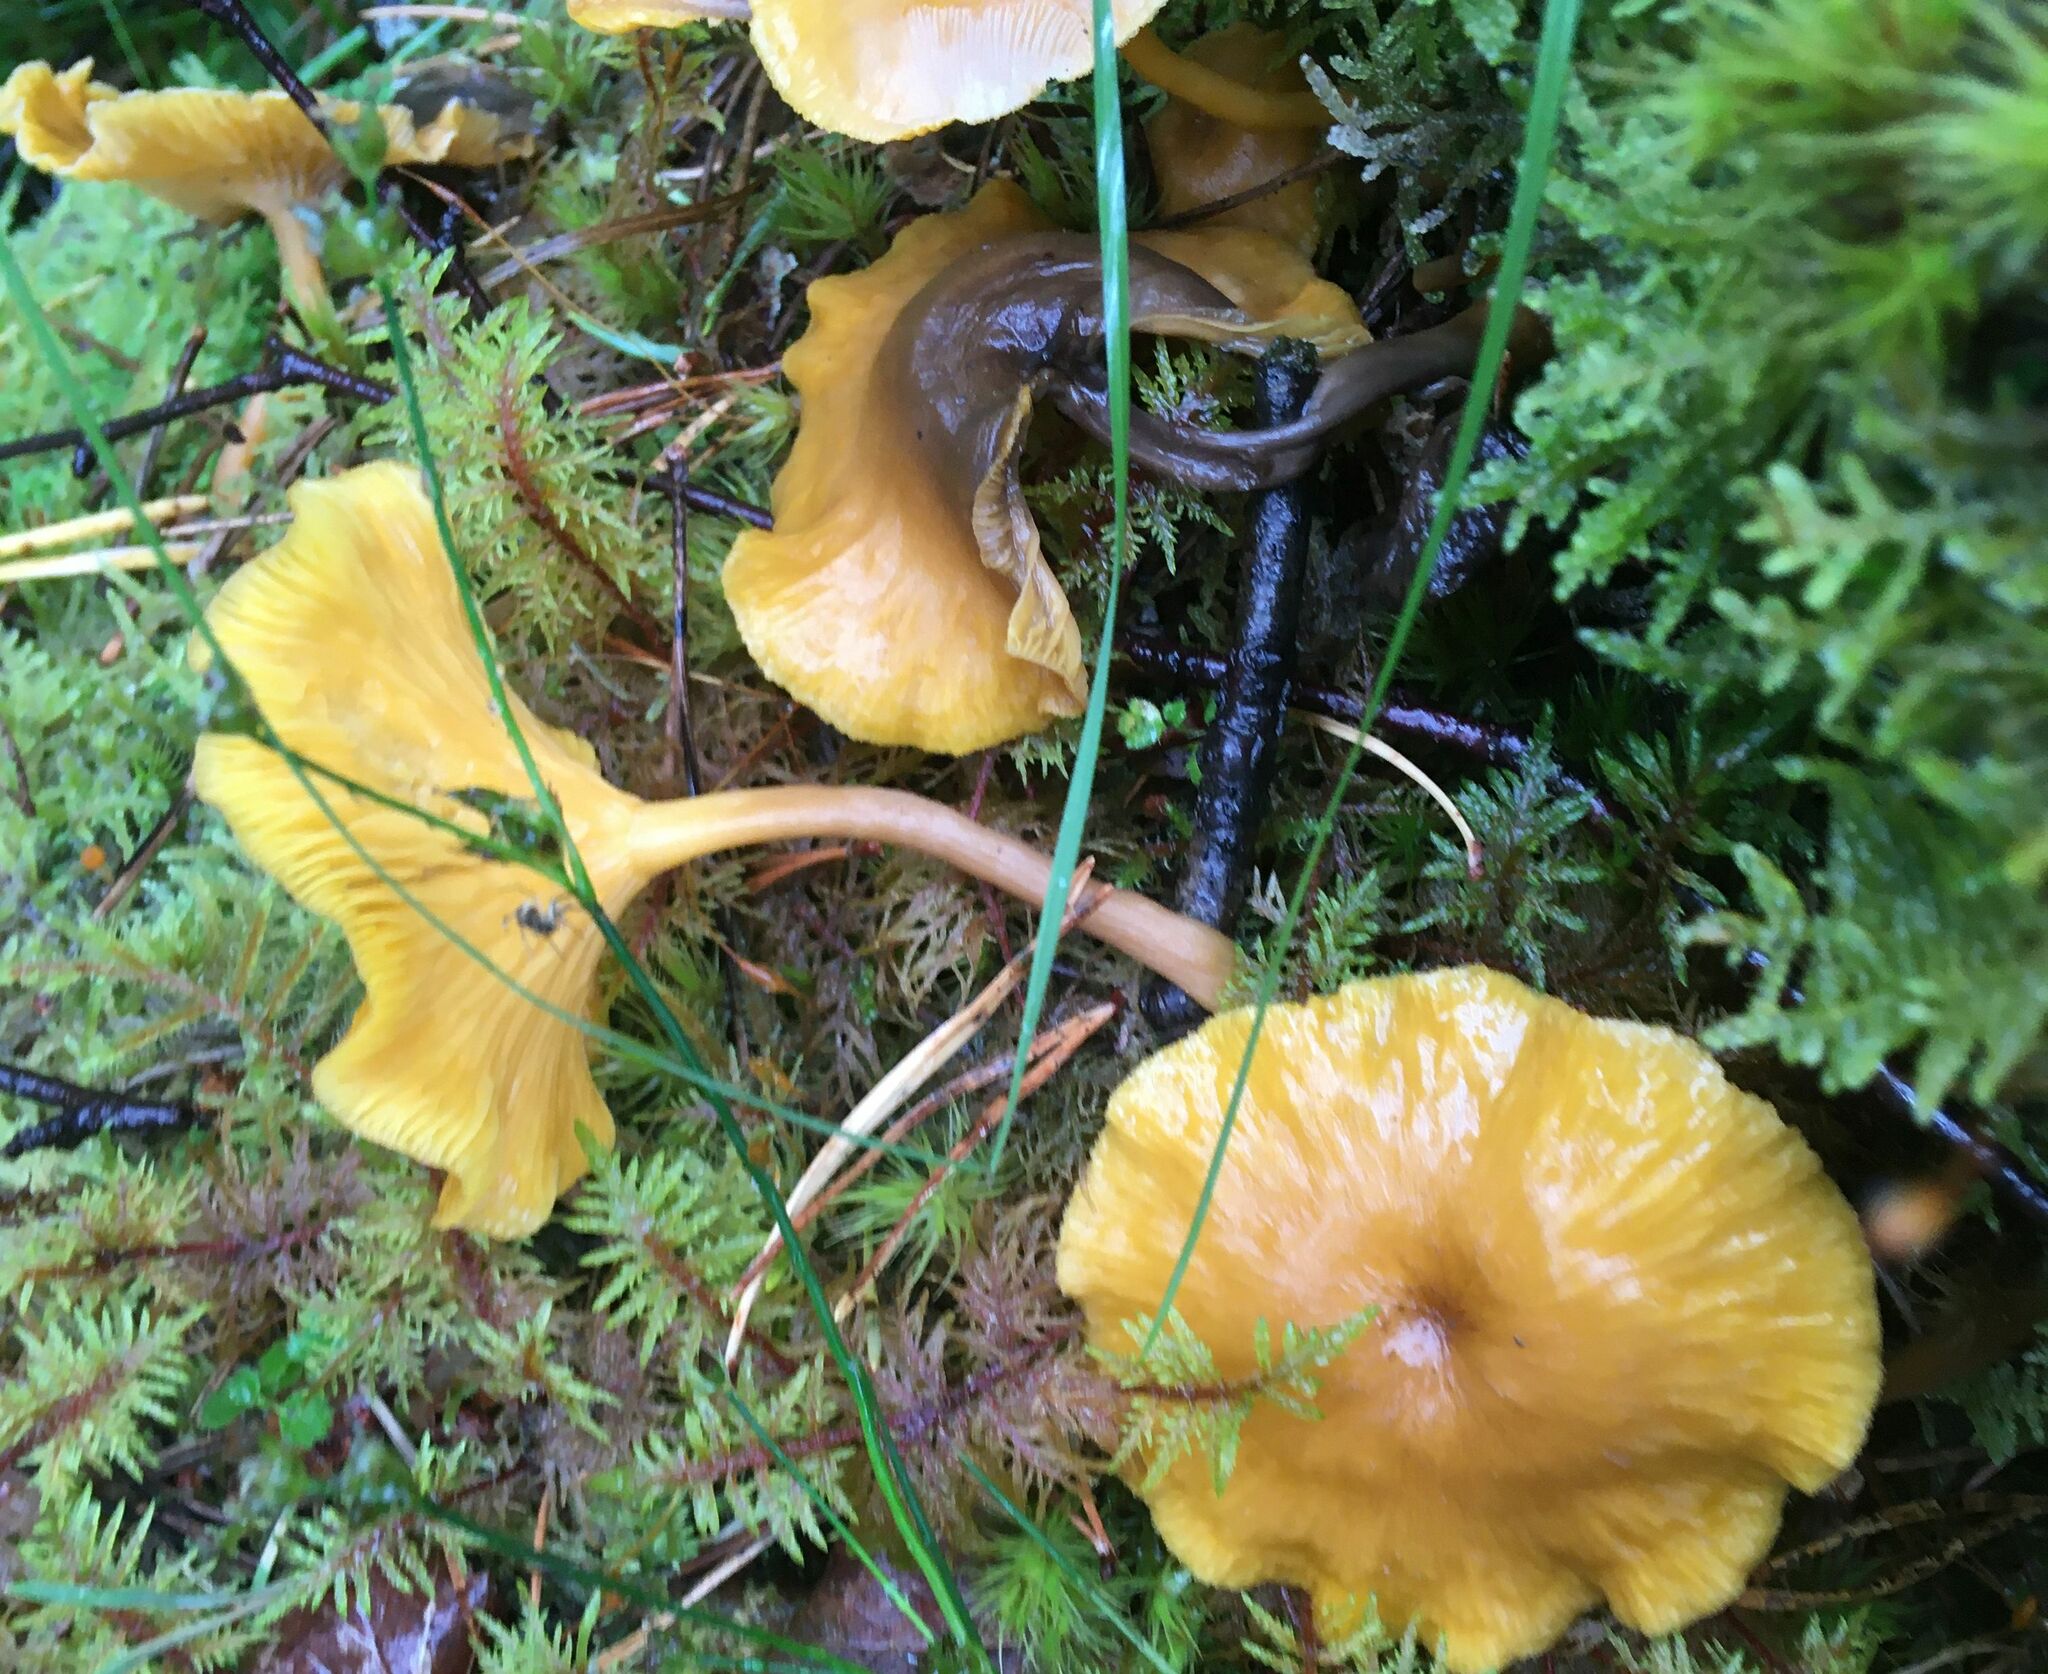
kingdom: Fungi
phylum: Basidiomycota
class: Agaricomycetes
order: Agaricales
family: Hygrophoraceae
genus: Chrysomphalina
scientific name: Chrysomphalina chrysophylla
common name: Golden navel
